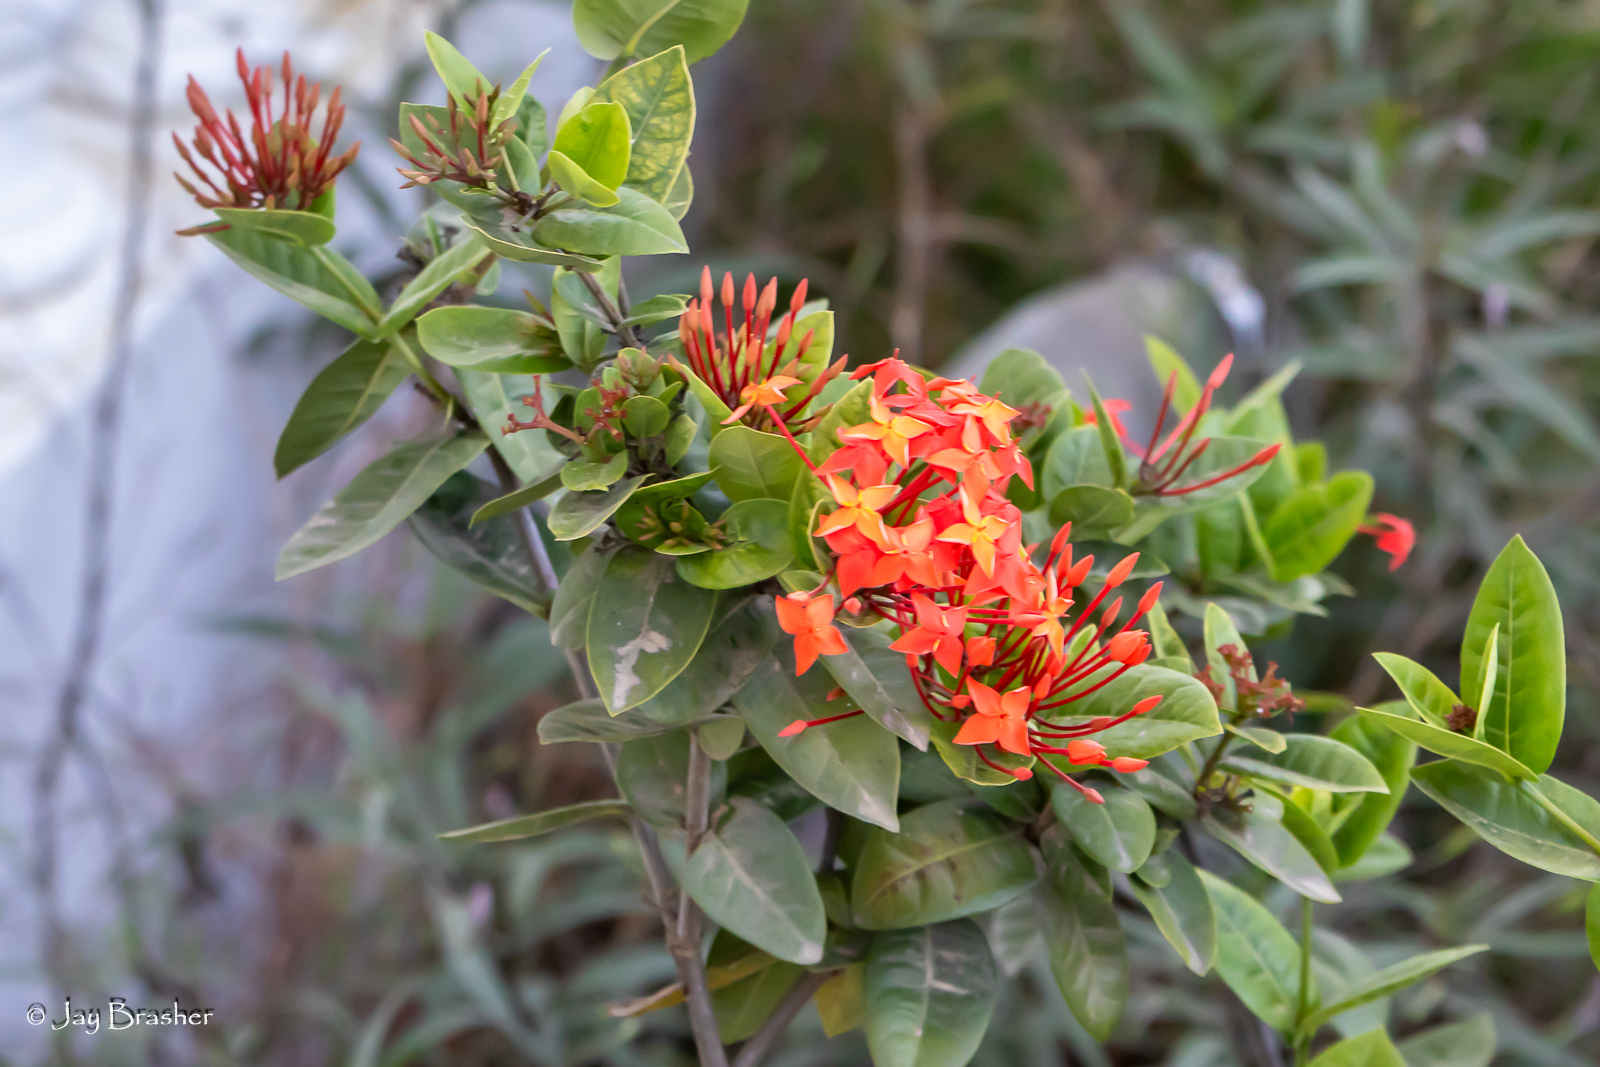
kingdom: Plantae
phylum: Tracheophyta
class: Magnoliopsida
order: Gentianales
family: Rubiaceae
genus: Ixora
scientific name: Ixora coccinea
